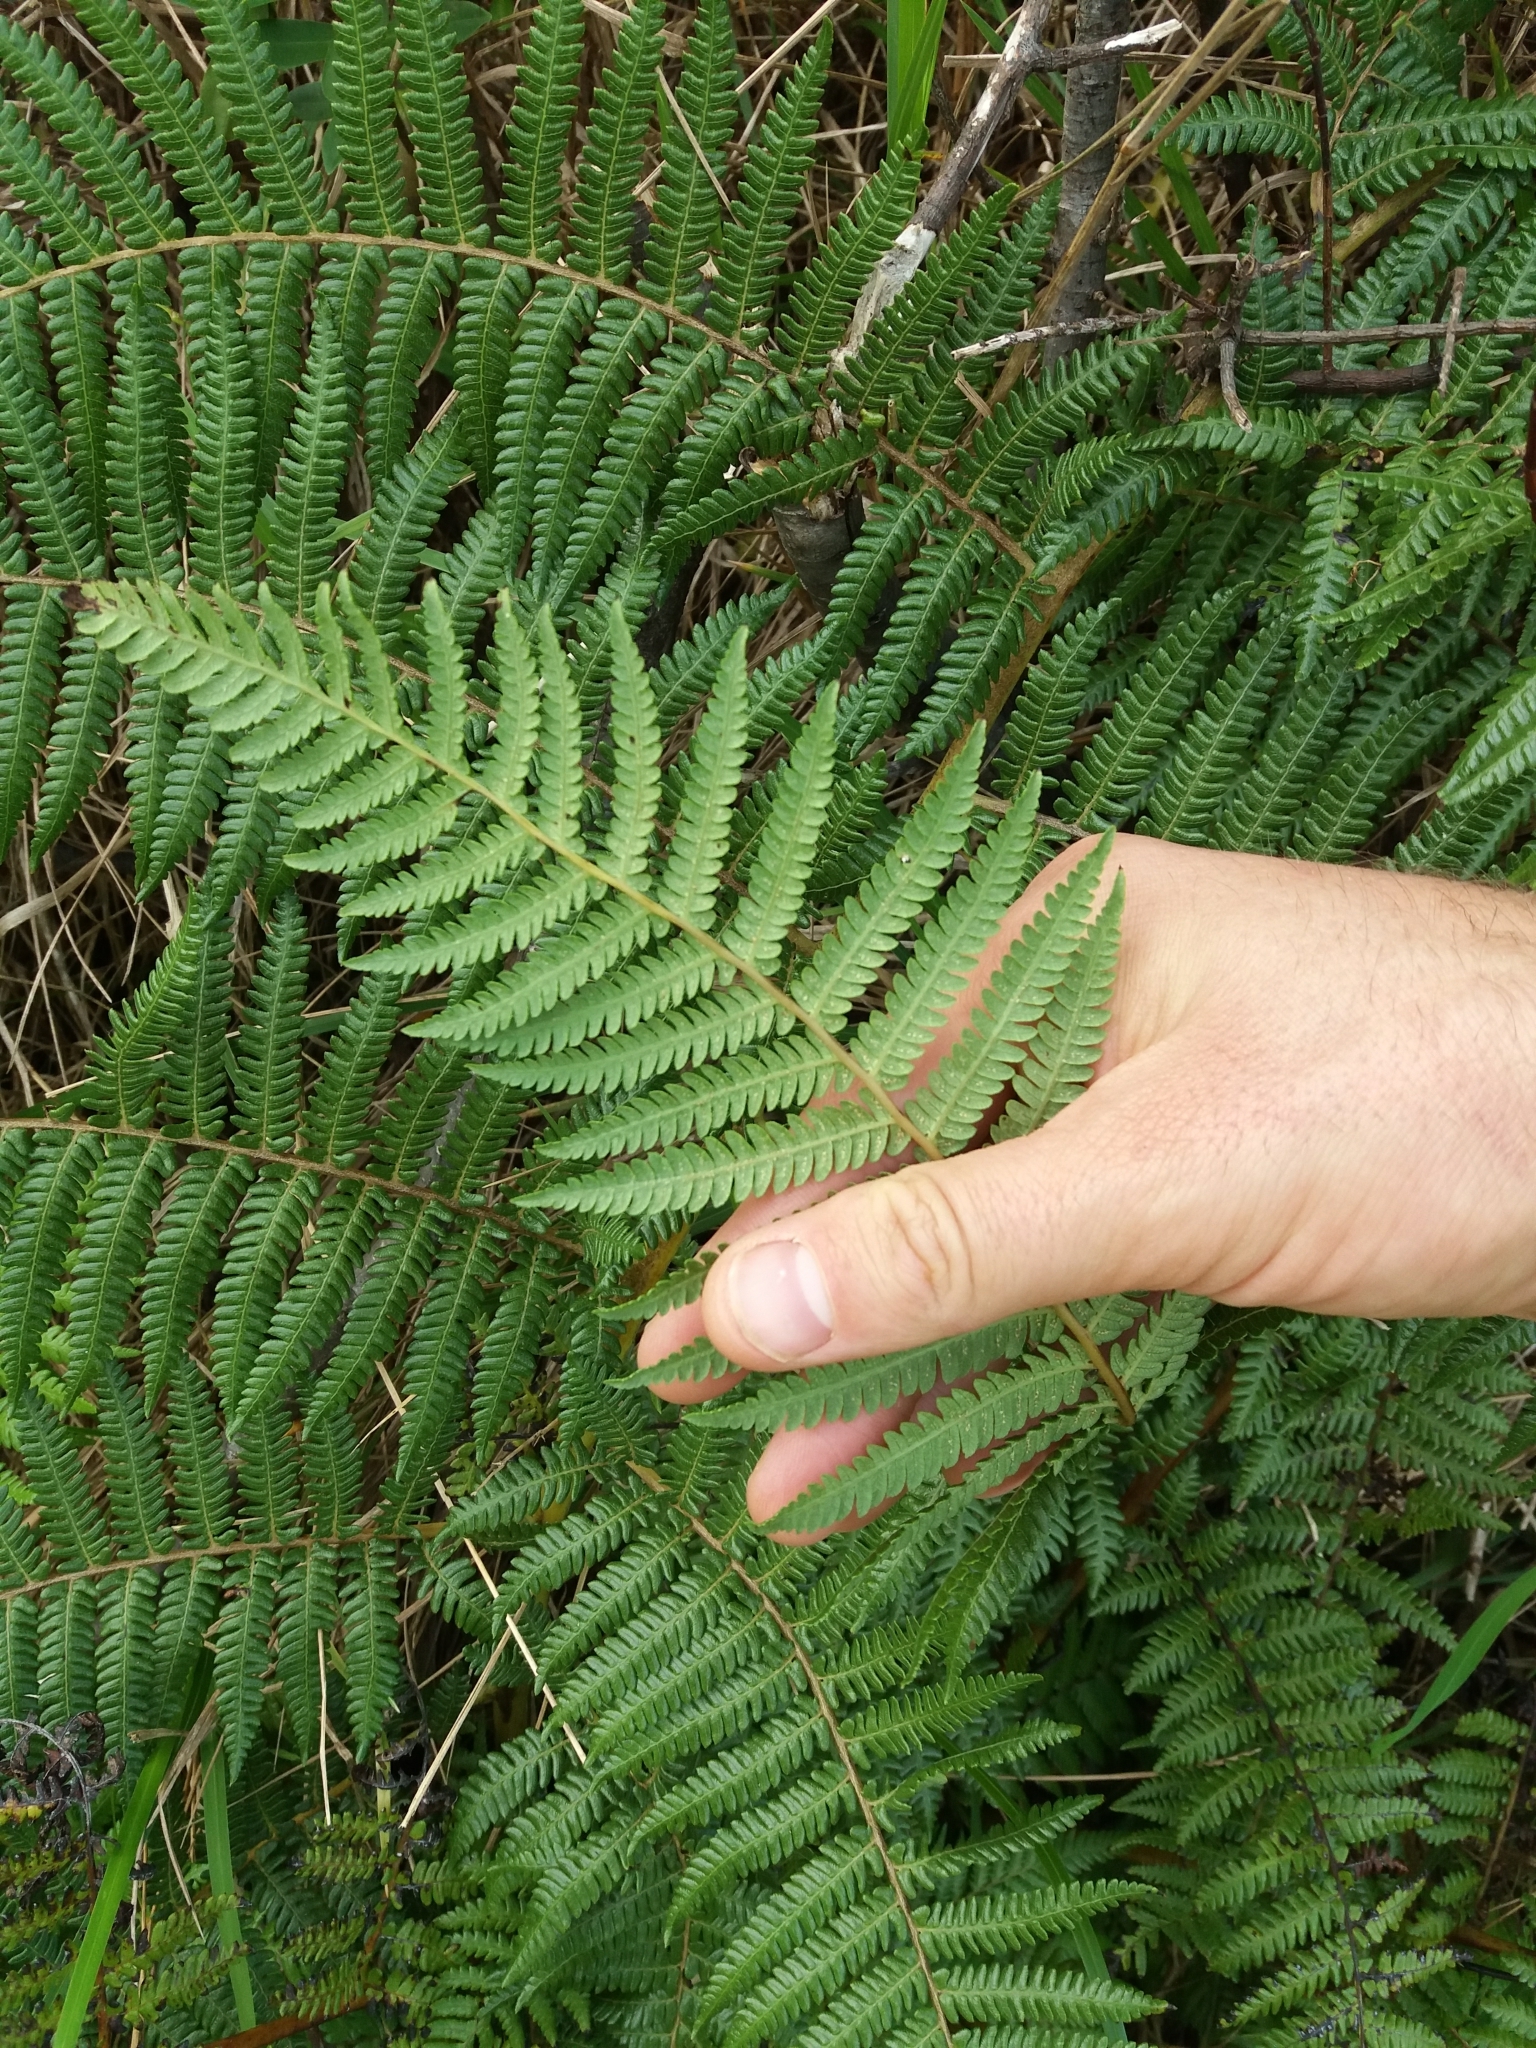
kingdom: Plantae
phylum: Tracheophyta
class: Polypodiopsida
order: Cyatheales
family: Cyatheaceae
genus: Sphaeropteris
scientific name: Sphaeropteris medullaris
